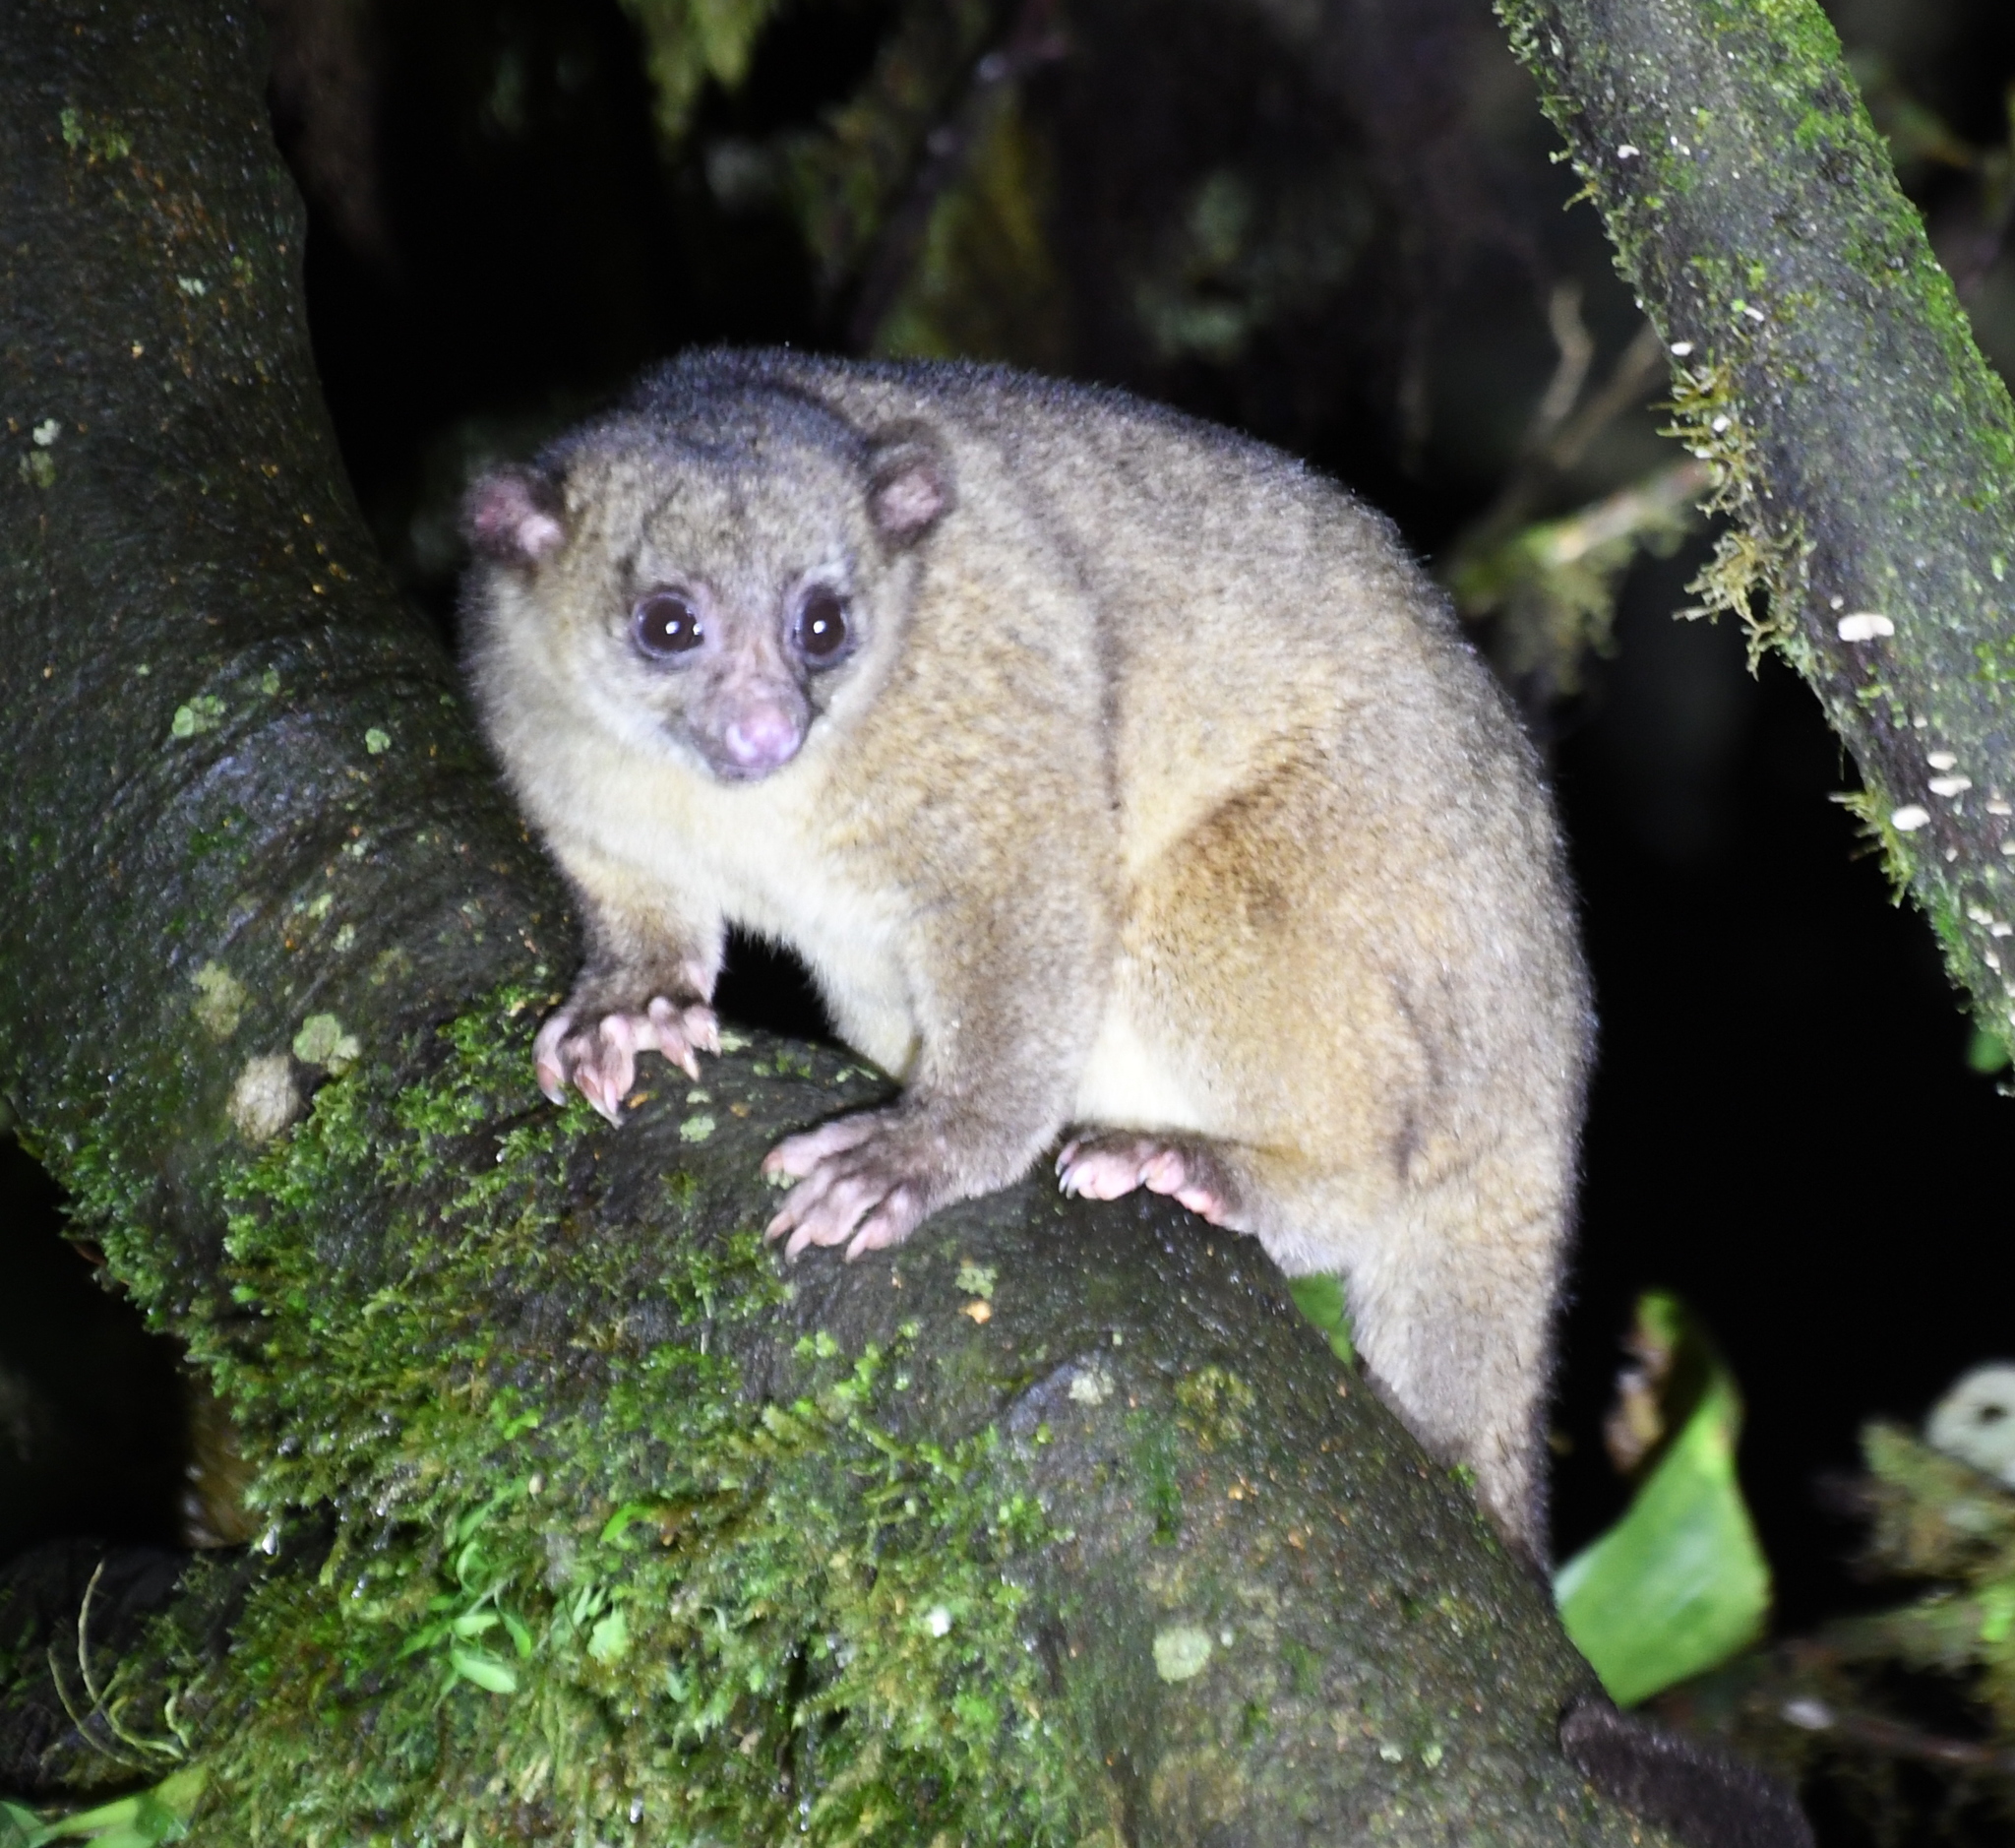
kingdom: Animalia
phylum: Chordata
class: Mammalia
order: Carnivora
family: Procyonidae
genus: Potos
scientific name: Potos flavus
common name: Kinkajou
